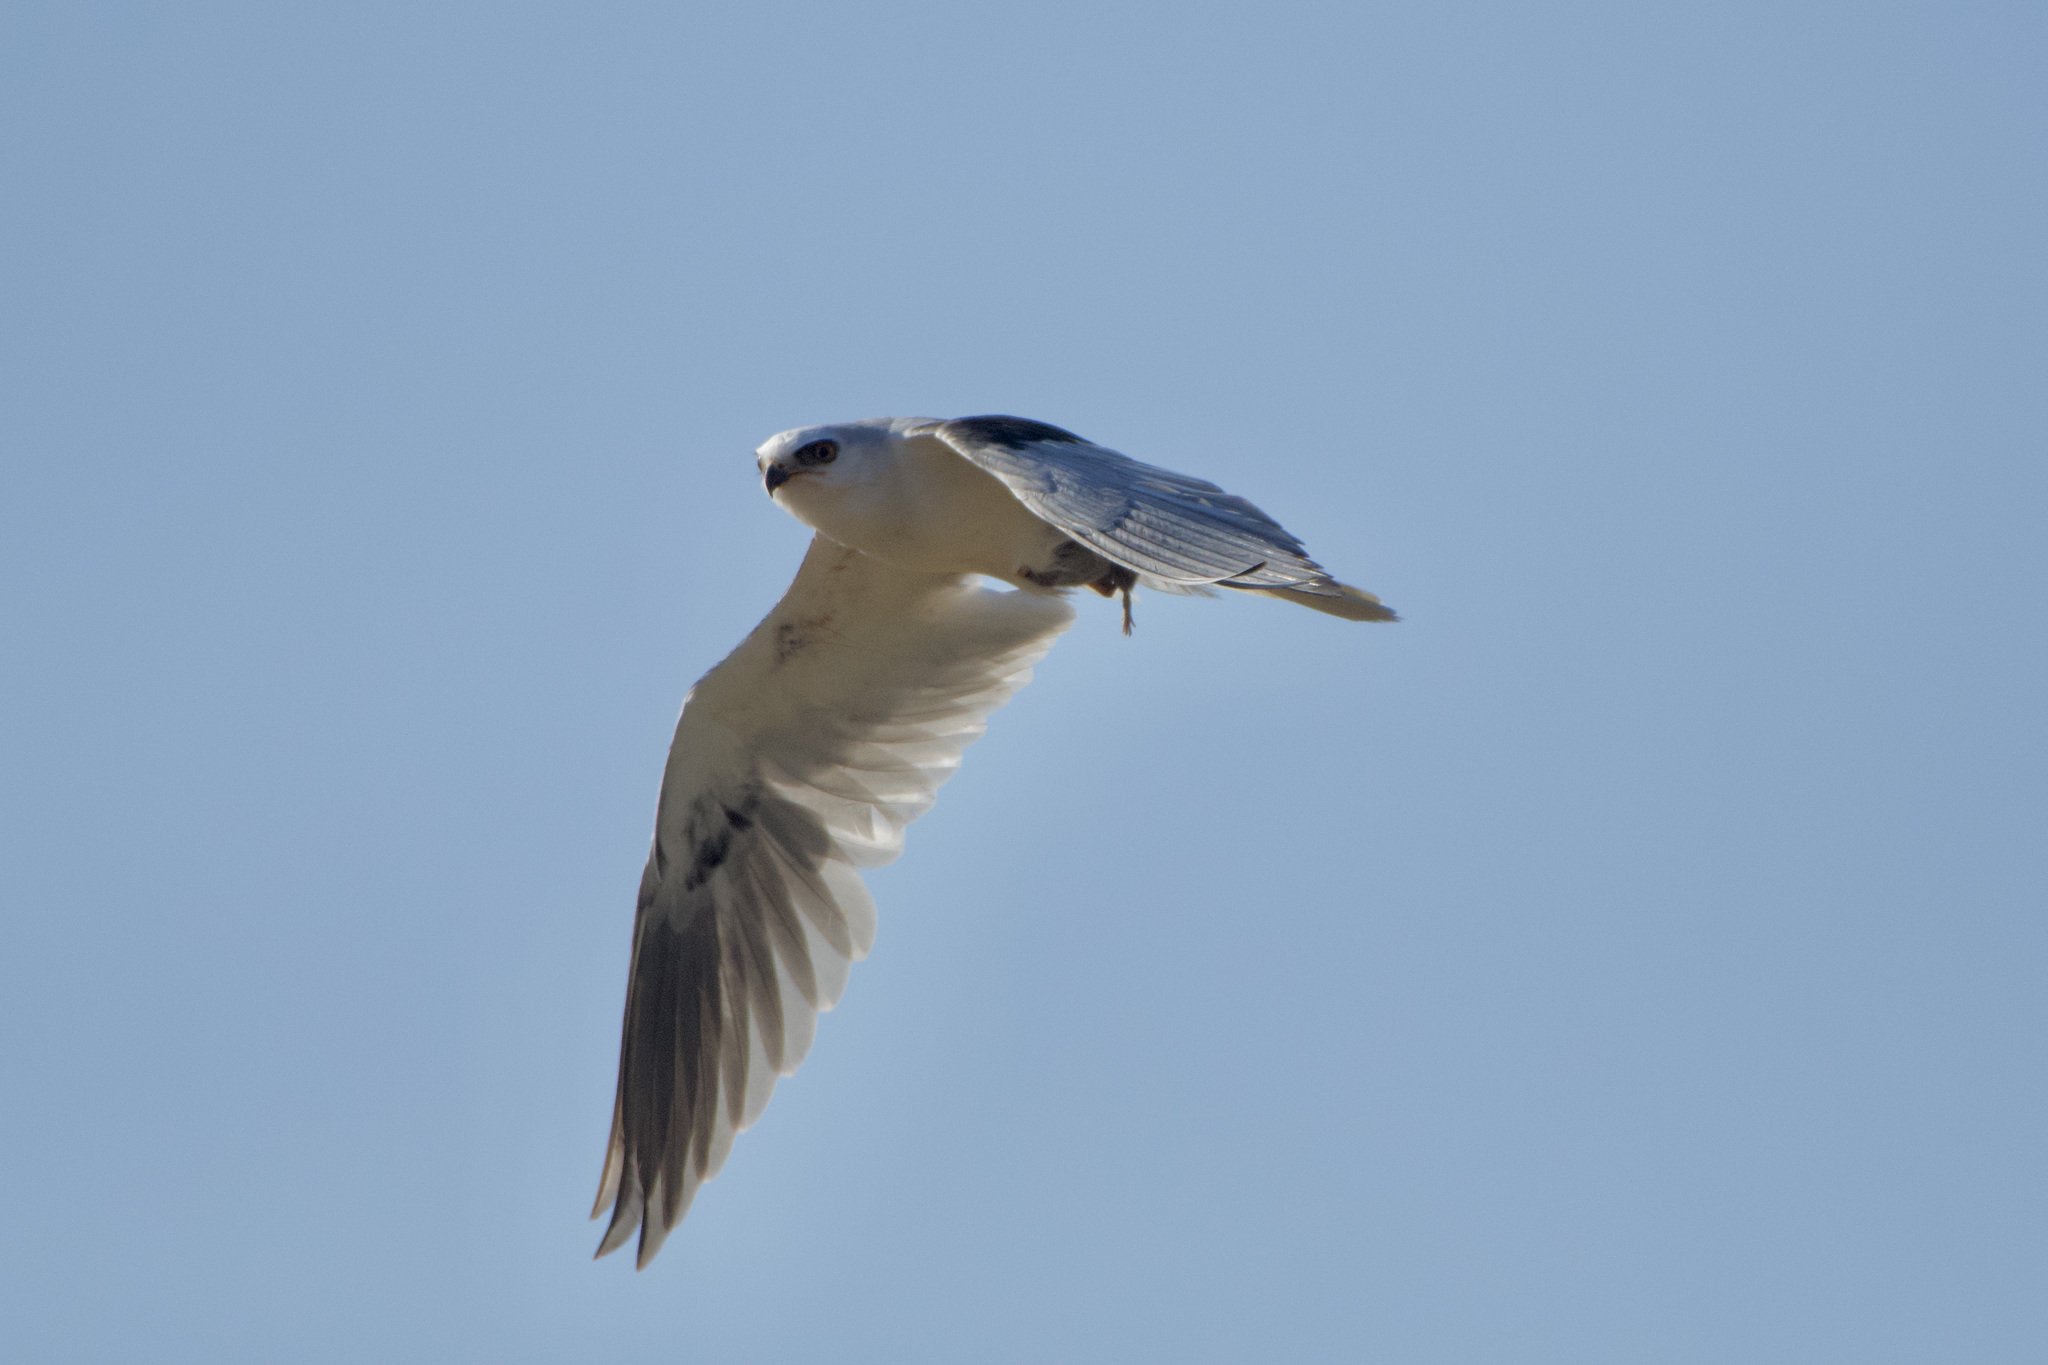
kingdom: Animalia
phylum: Chordata
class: Aves
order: Accipitriformes
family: Accipitridae
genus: Elanus
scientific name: Elanus leucurus
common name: White-tailed kite
